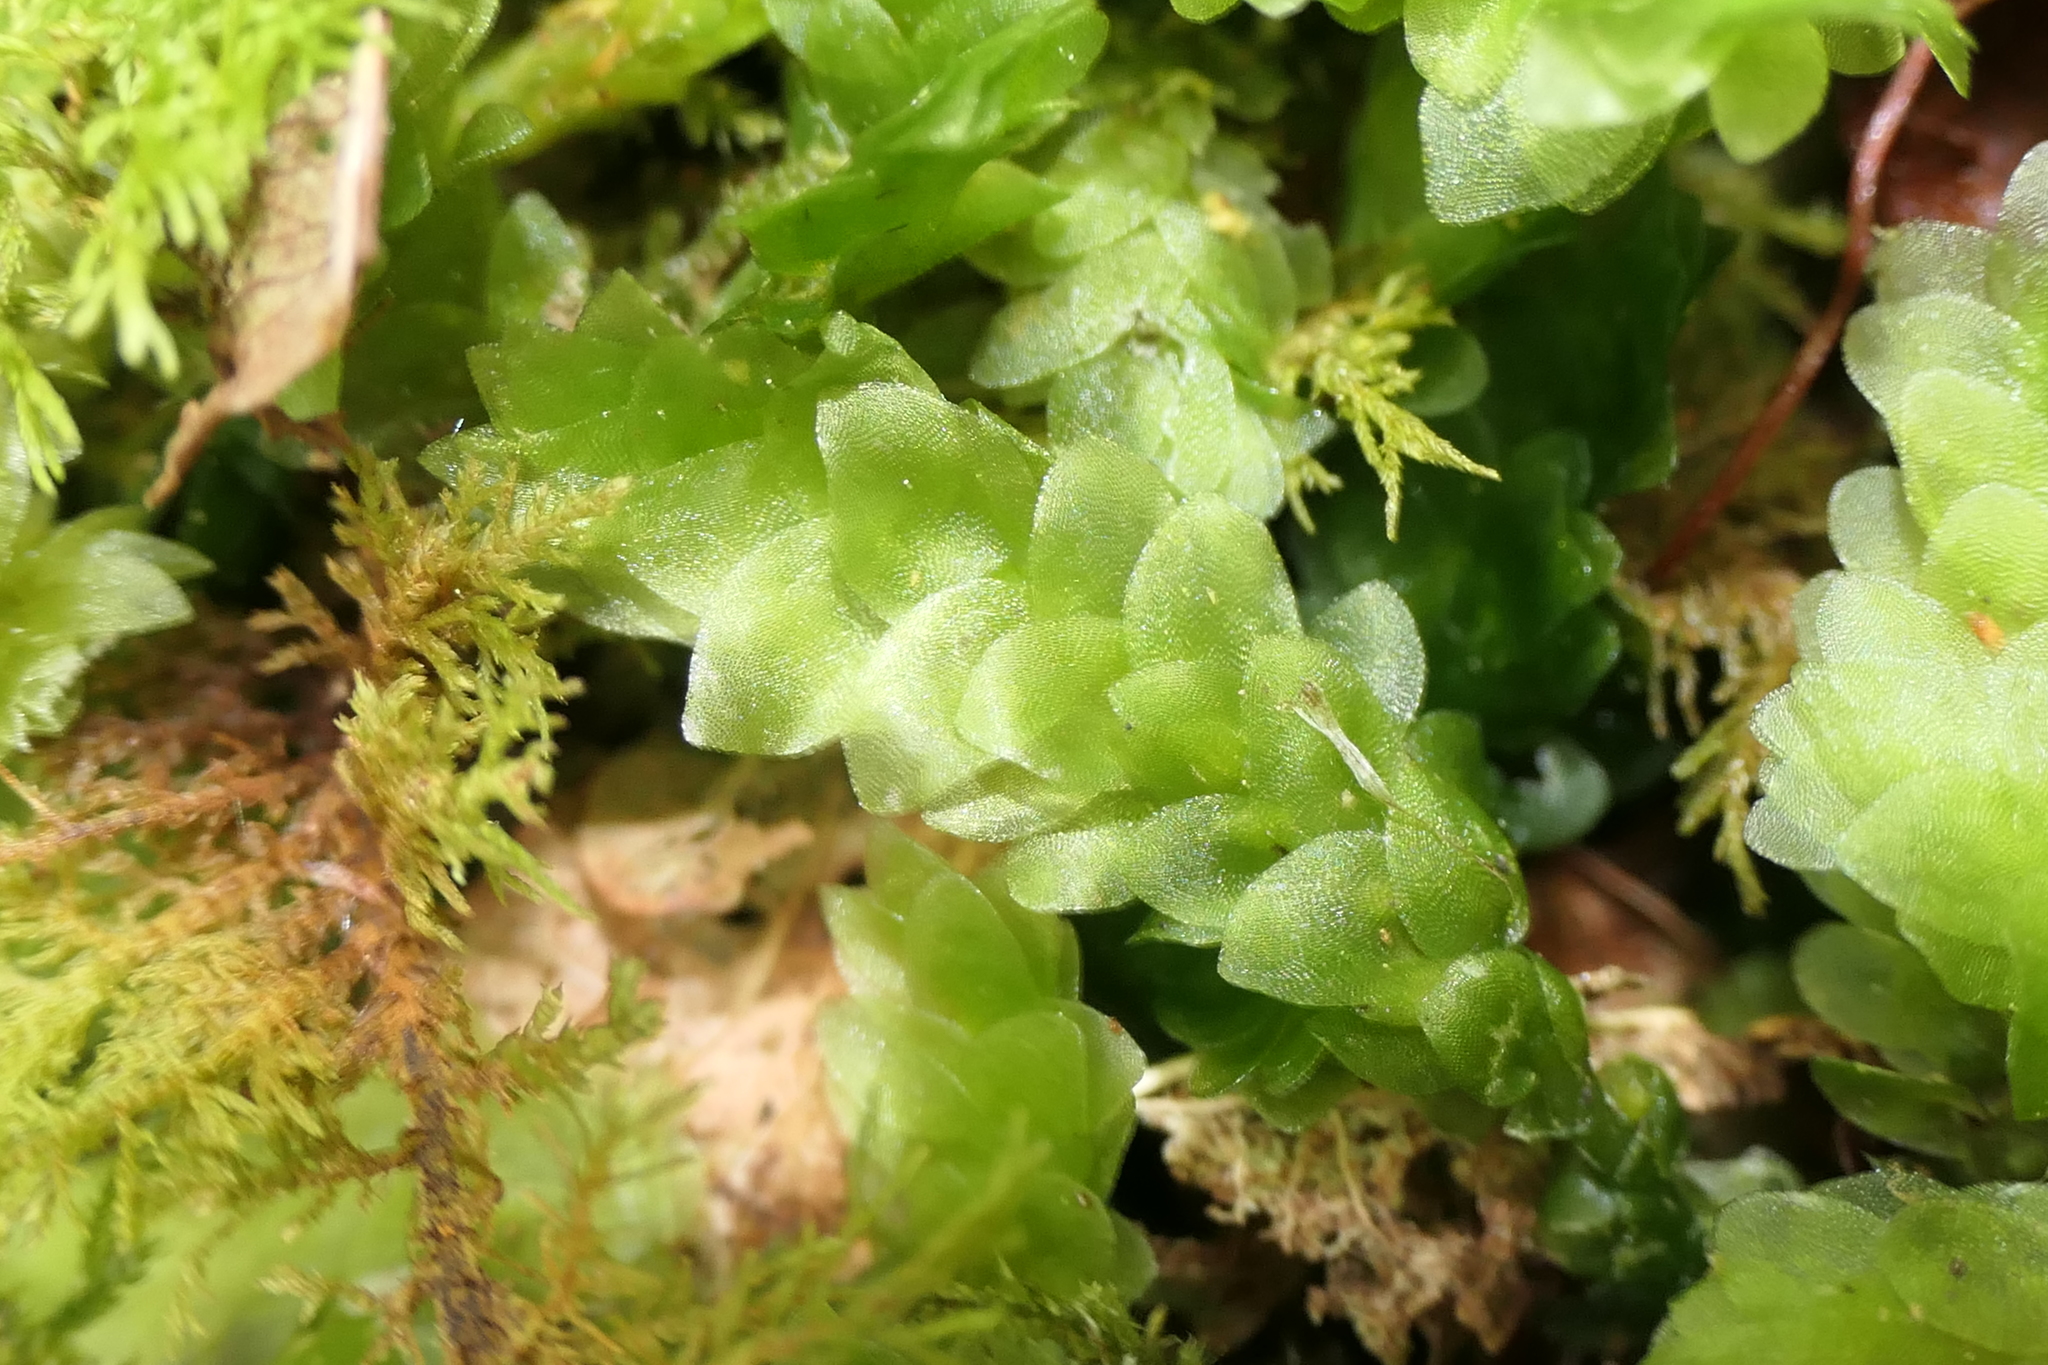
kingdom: Plantae
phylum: Bryophyta
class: Bryopsida
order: Hookeriales
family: Hookeriaceae
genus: Hookeria
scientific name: Hookeria lucens
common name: Shining hookeria
